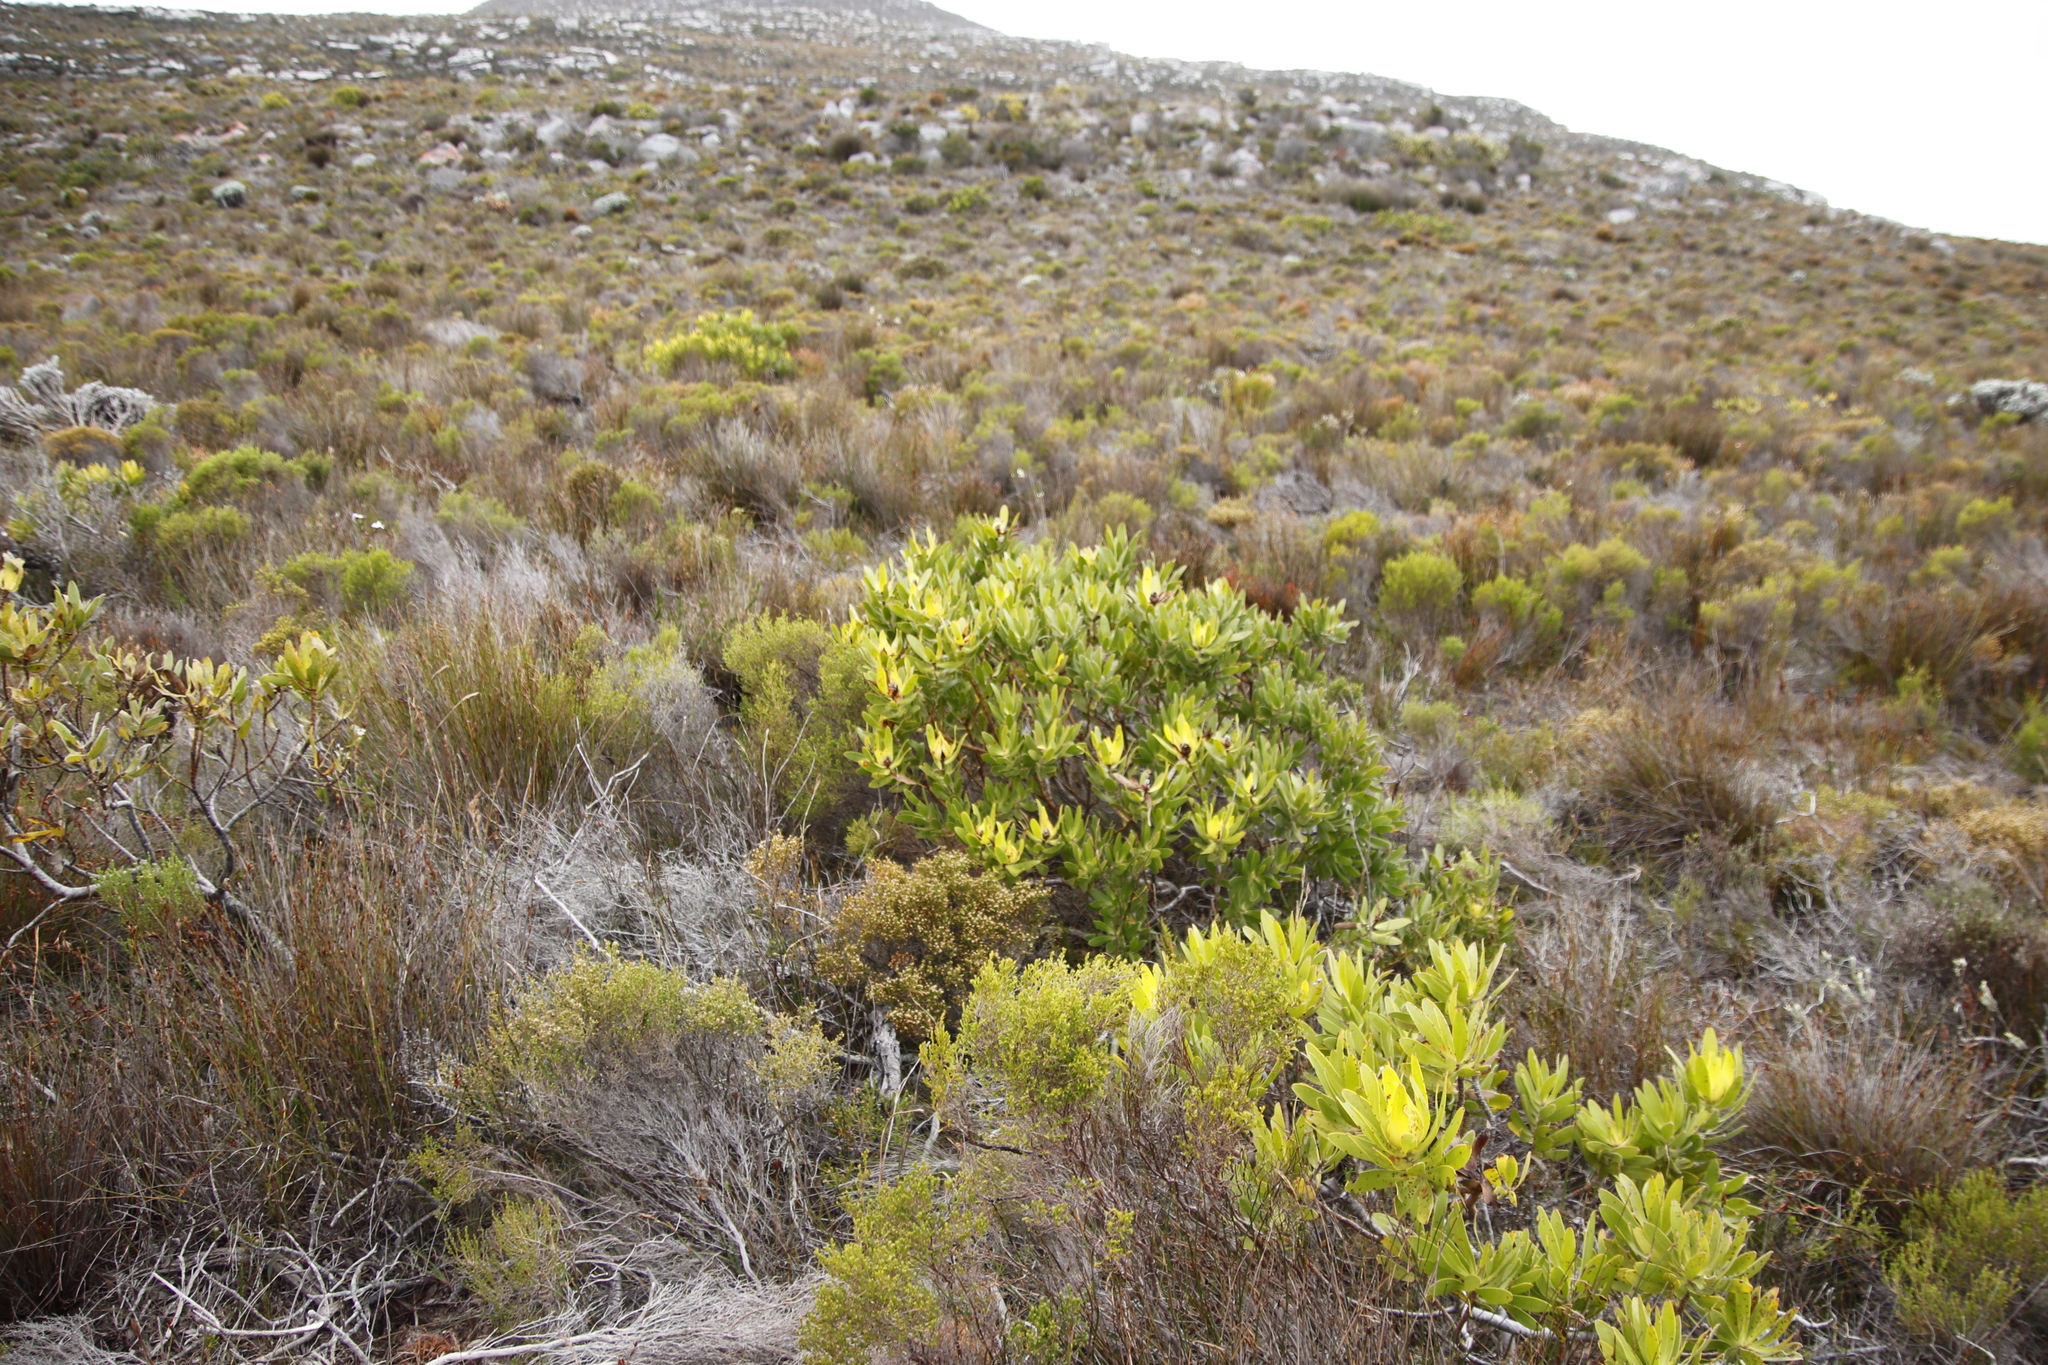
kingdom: Plantae
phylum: Tracheophyta
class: Magnoliopsida
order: Proteales
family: Proteaceae
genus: Leucadendron
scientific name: Leucadendron laureolum
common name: Golden sunshinebush
